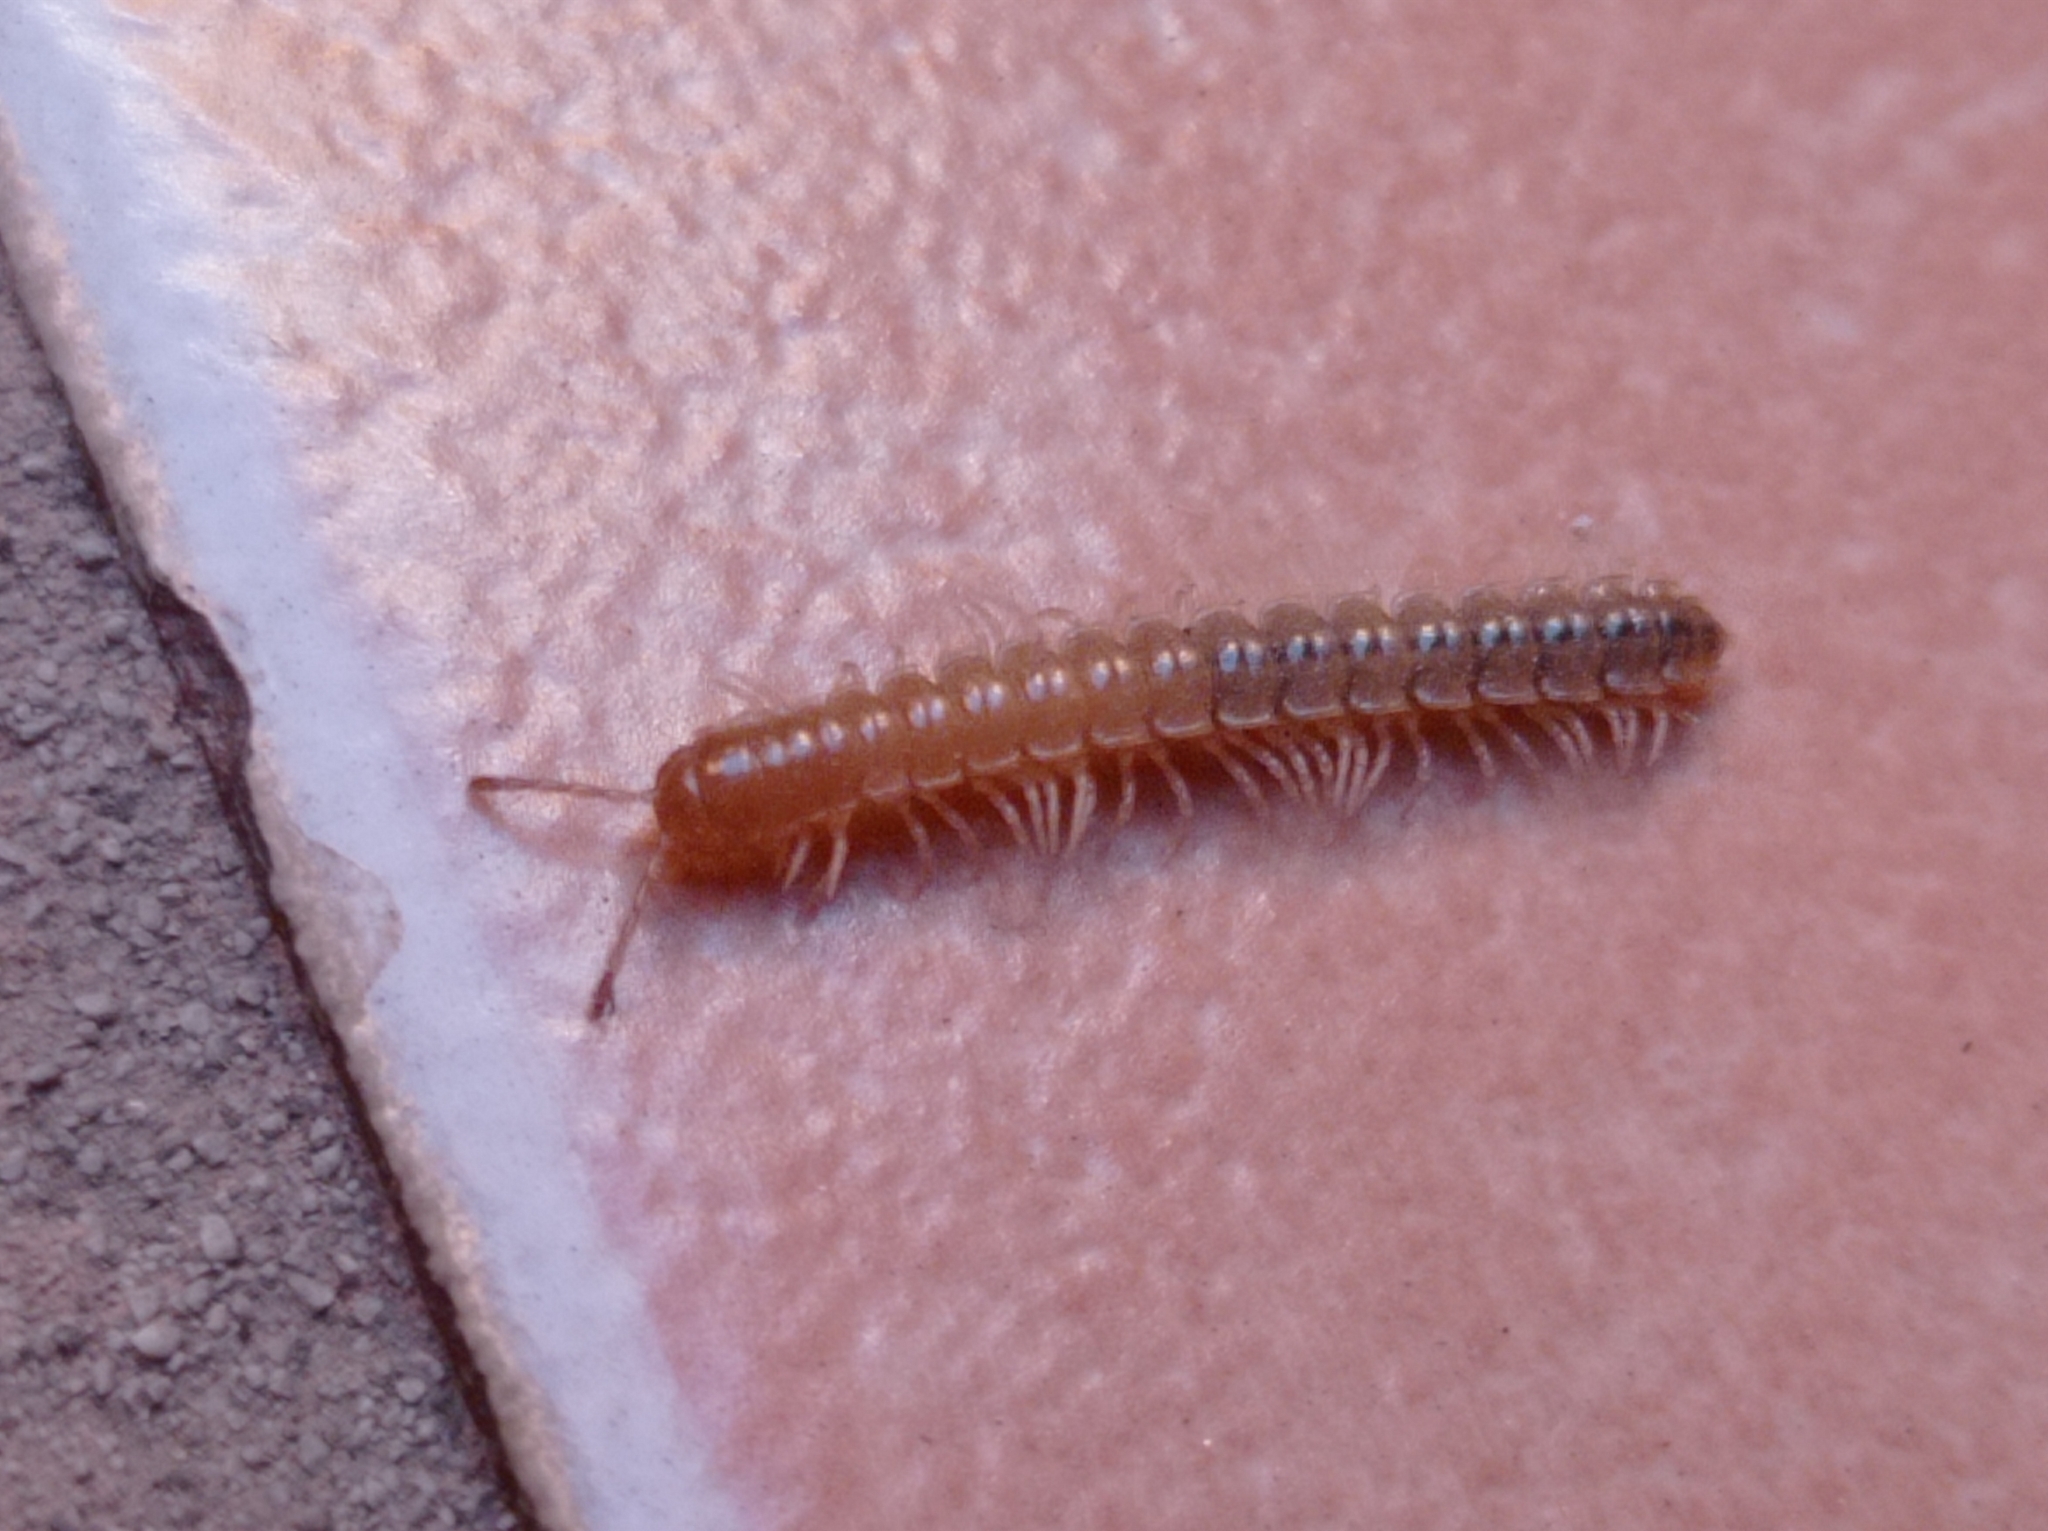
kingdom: Animalia
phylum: Arthropoda
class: Diplopoda
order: Polydesmida
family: Paradoxosomatidae
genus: Oxidus
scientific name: Oxidus gracilis
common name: Greenhouse millipede
